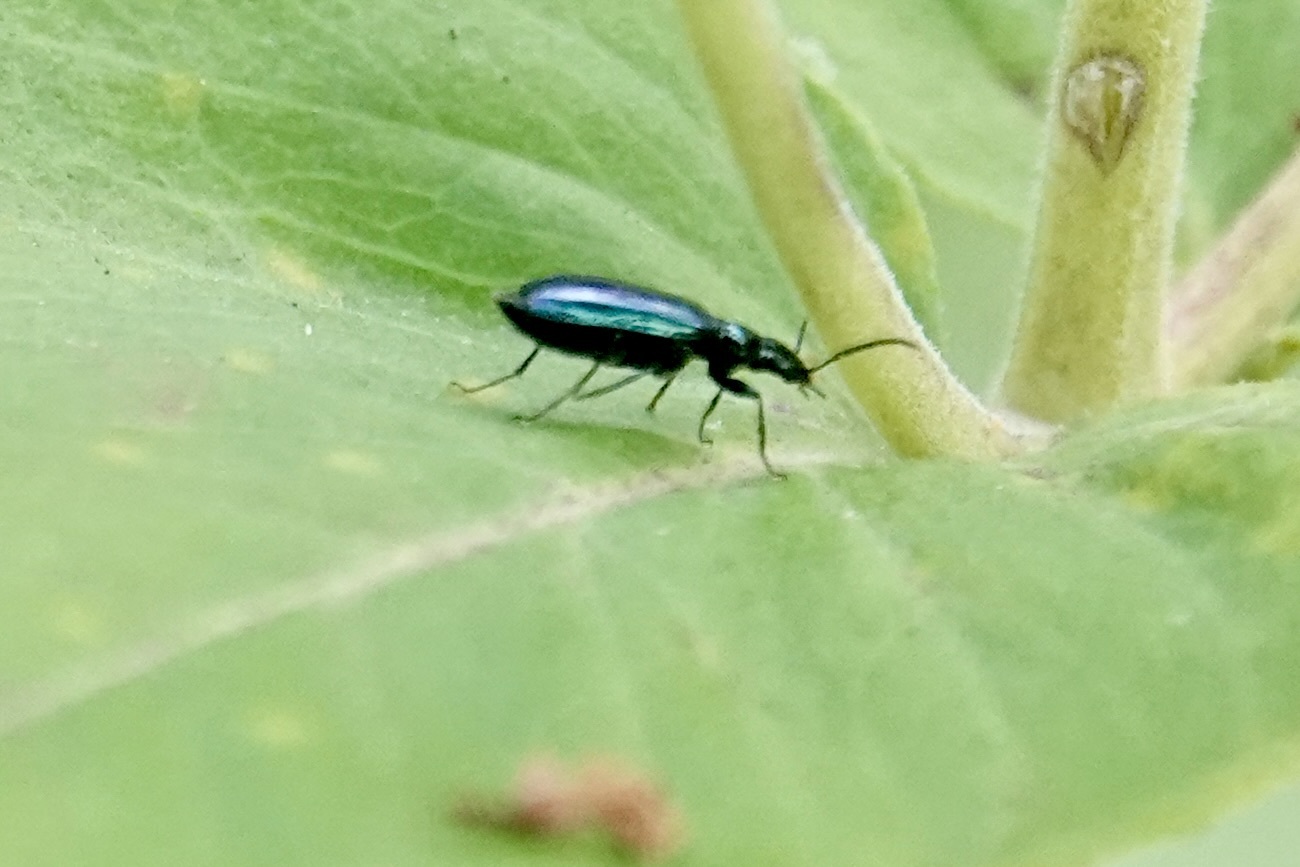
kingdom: Animalia
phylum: Arthropoda
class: Insecta
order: Coleoptera
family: Carabidae
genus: Lebia
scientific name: Lebia viridis
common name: Flower lebia beetle
